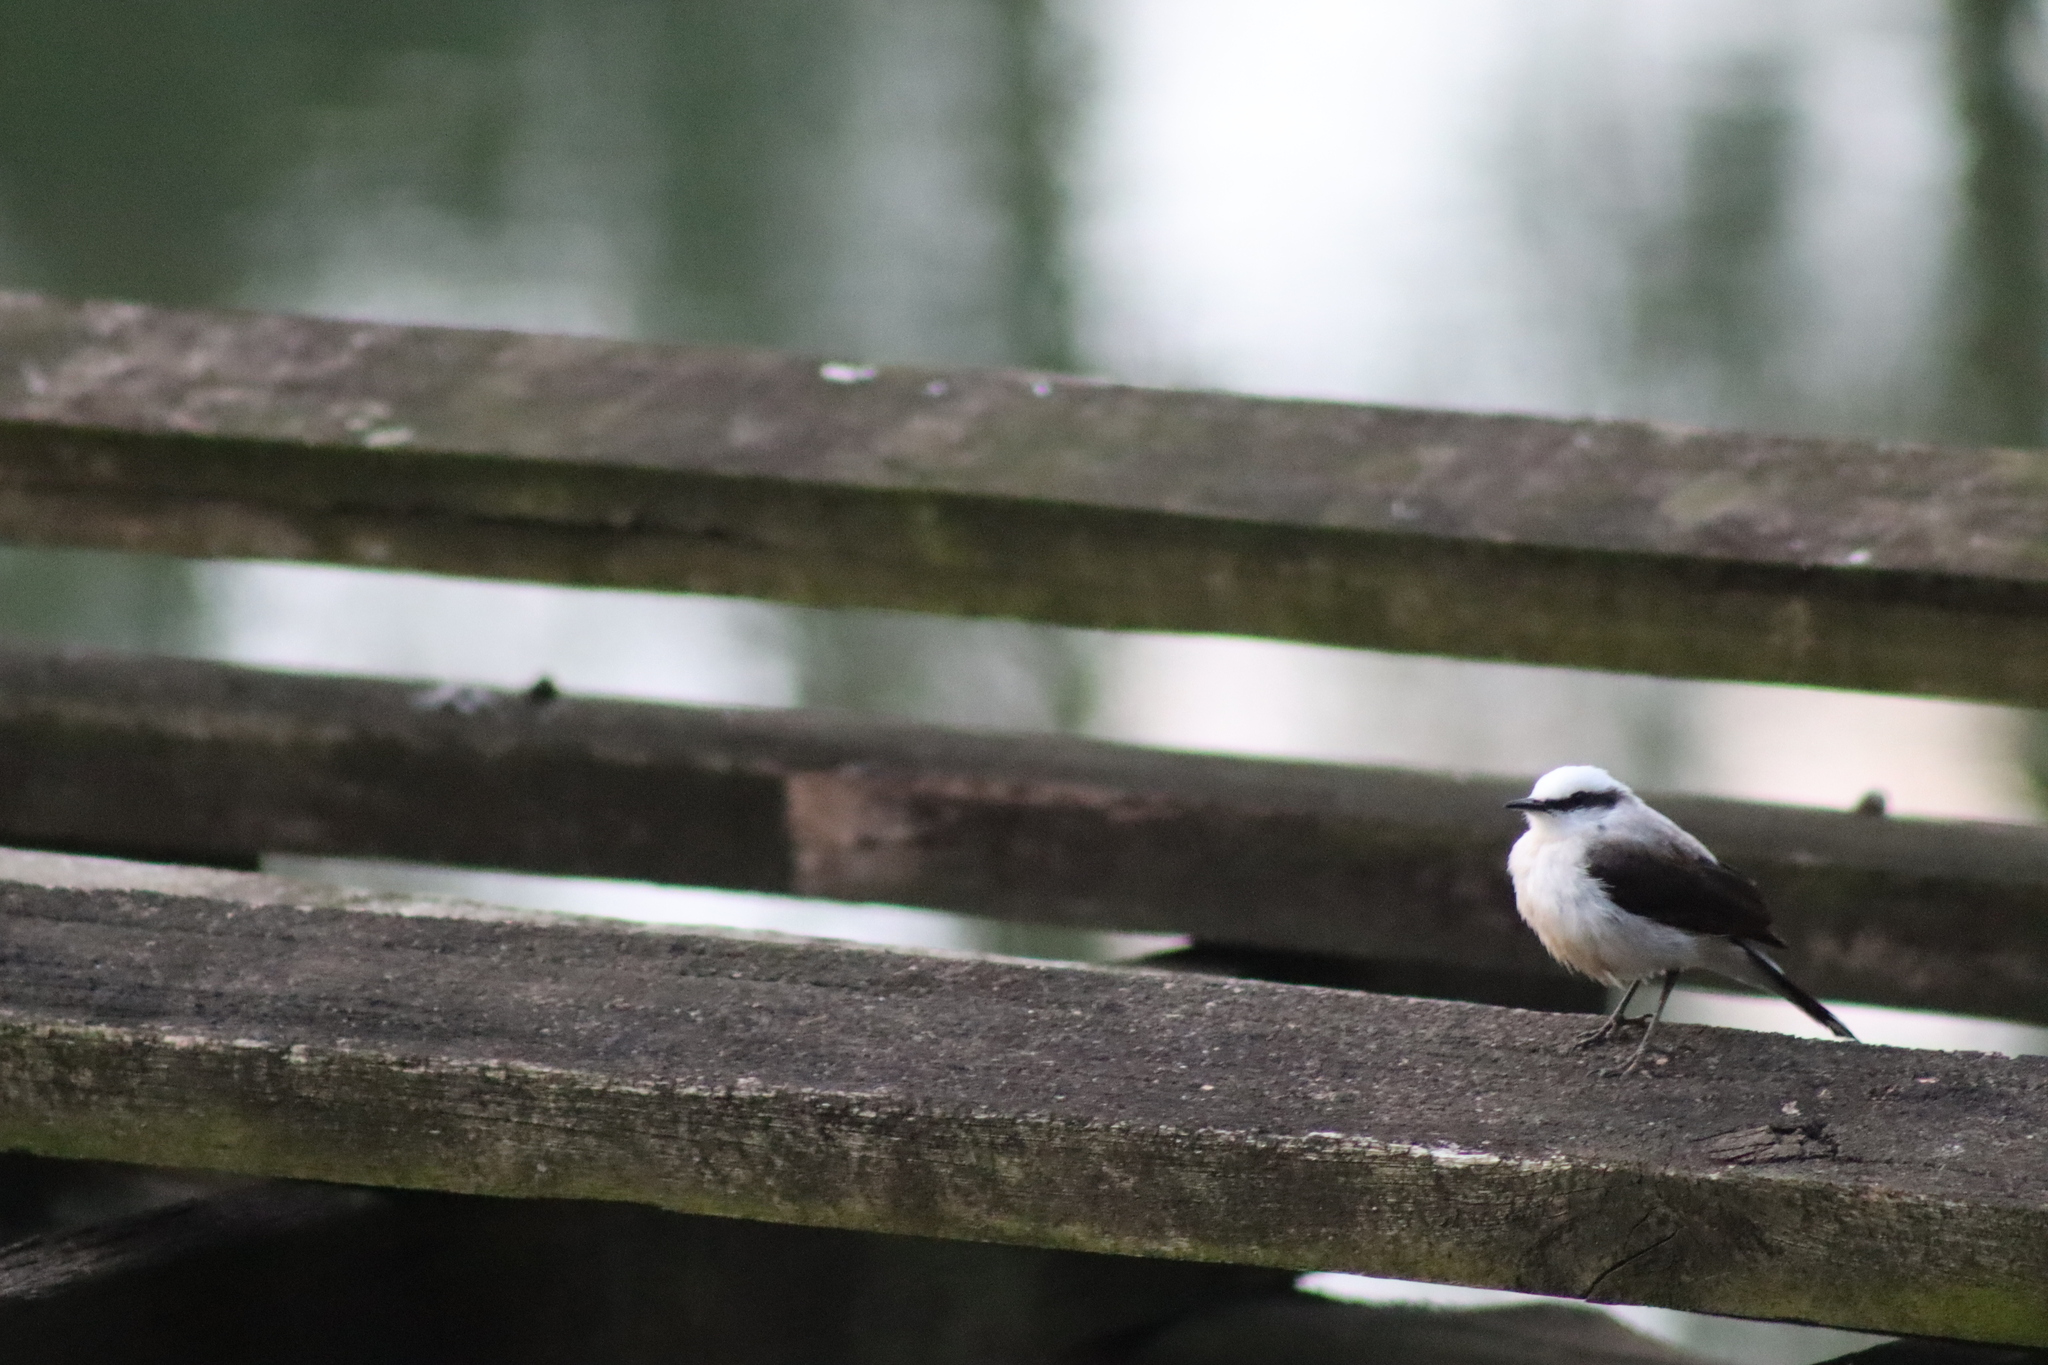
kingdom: Animalia
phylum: Chordata
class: Aves
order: Passeriformes
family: Tyrannidae
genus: Fluvicola
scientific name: Fluvicola nengeta
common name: Masked water tyrant
